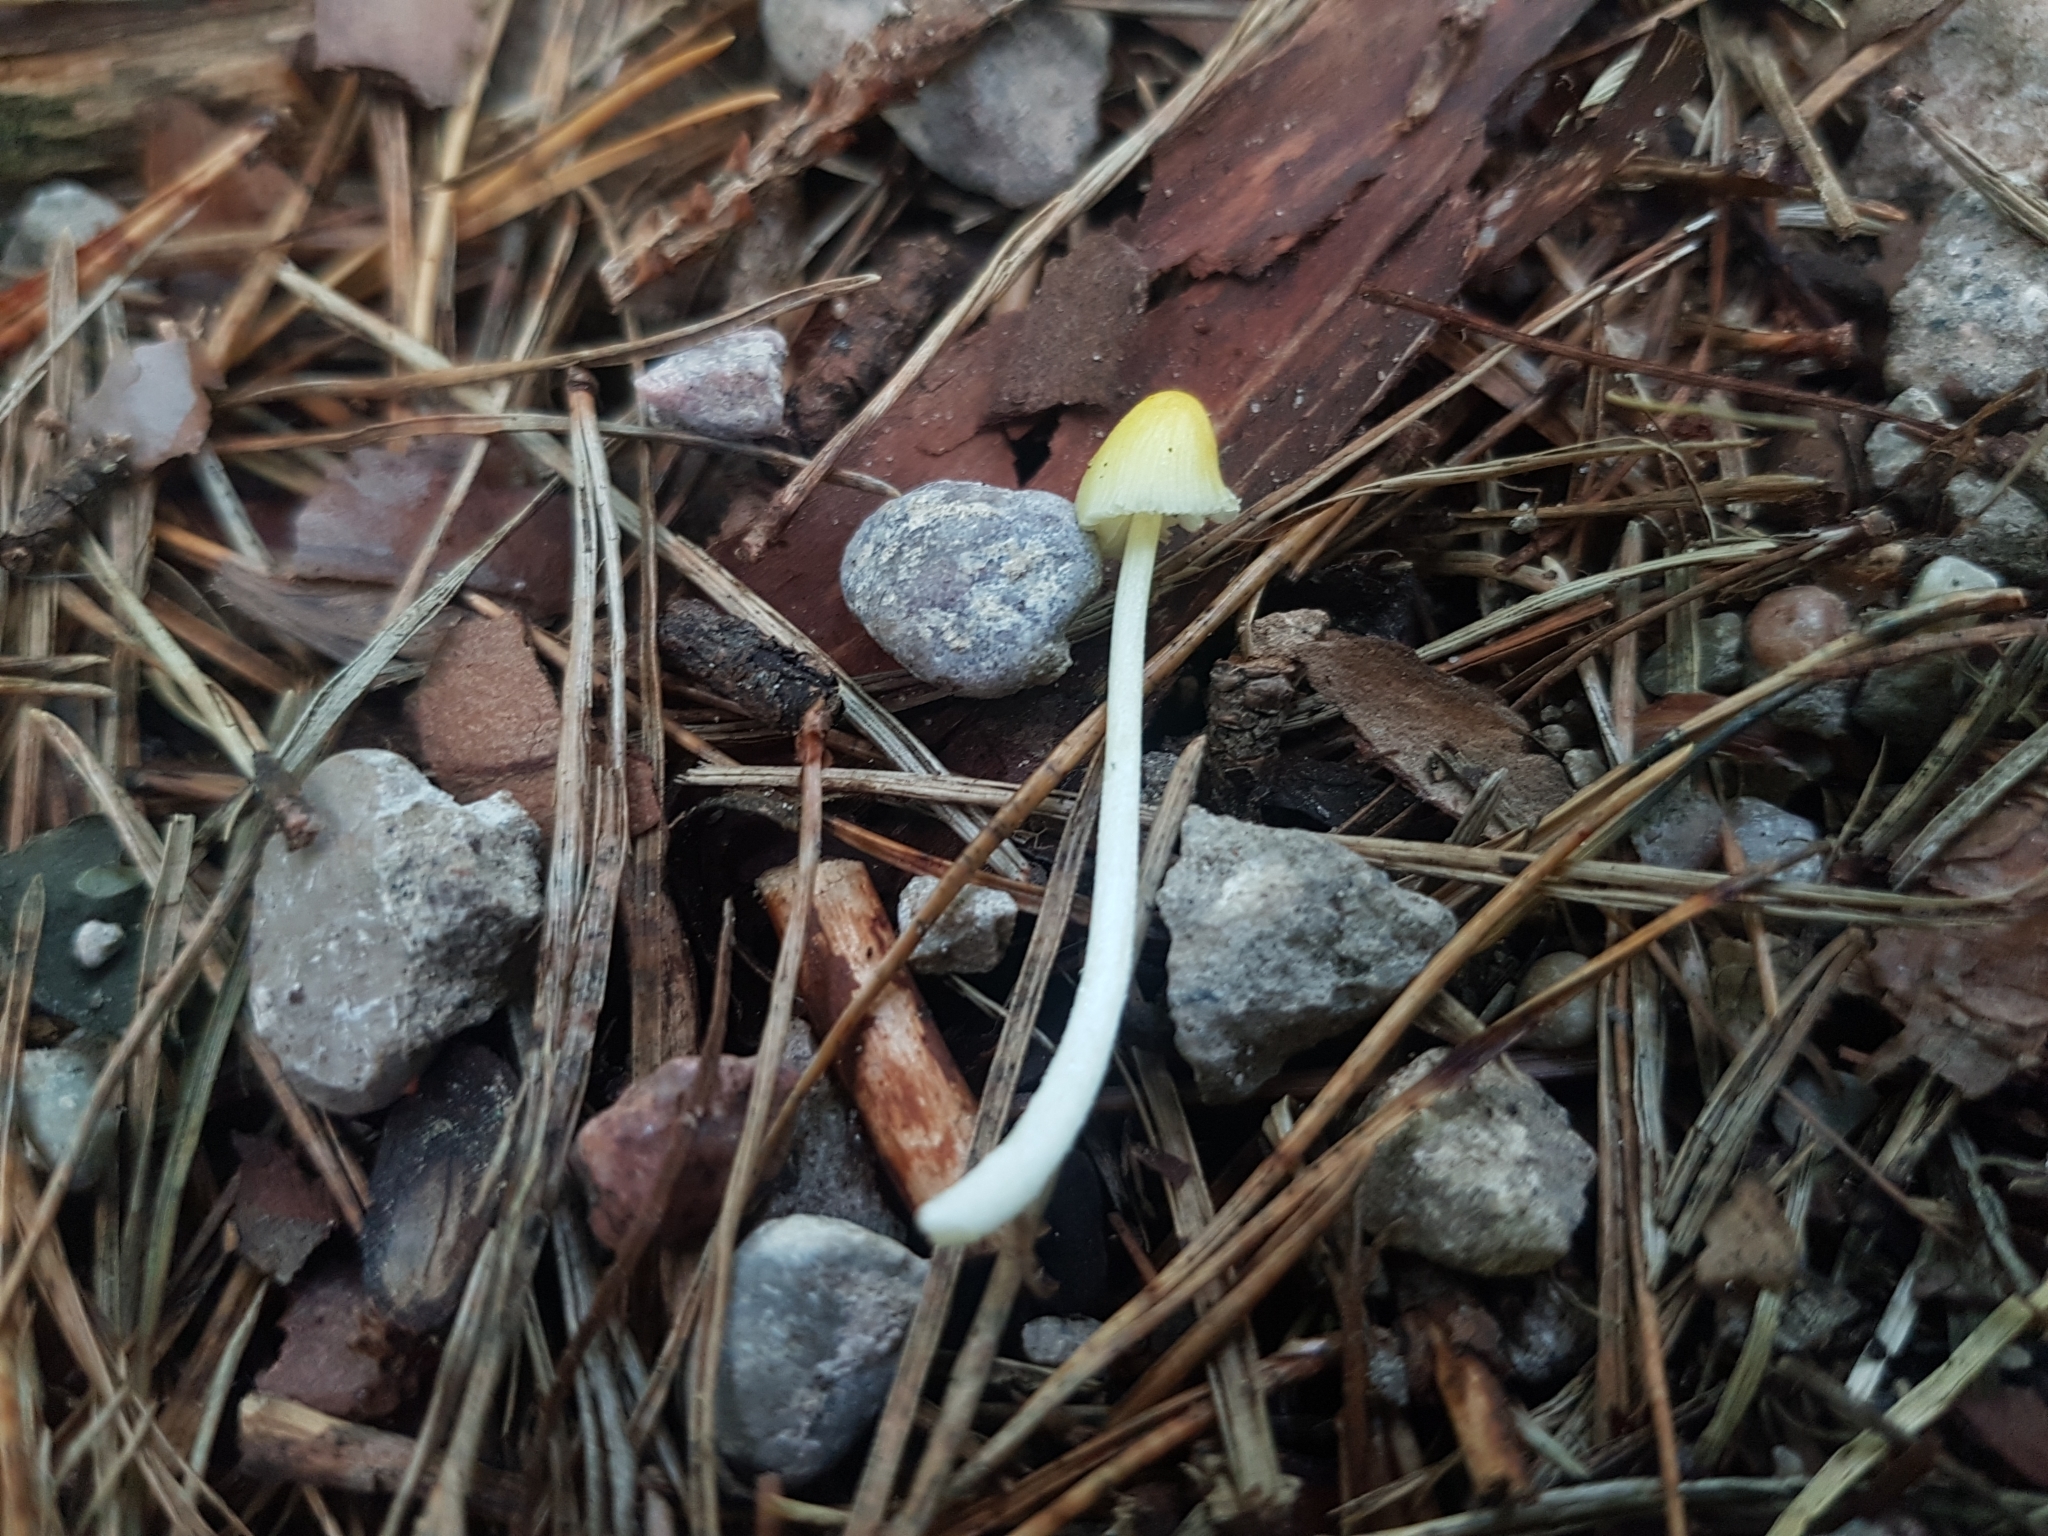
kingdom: Fungi
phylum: Basidiomycota
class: Agaricomycetes
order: Agaricales
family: Bolbitiaceae
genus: Bolbitius
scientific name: Bolbitius titubans
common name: Yellow fieldcap
